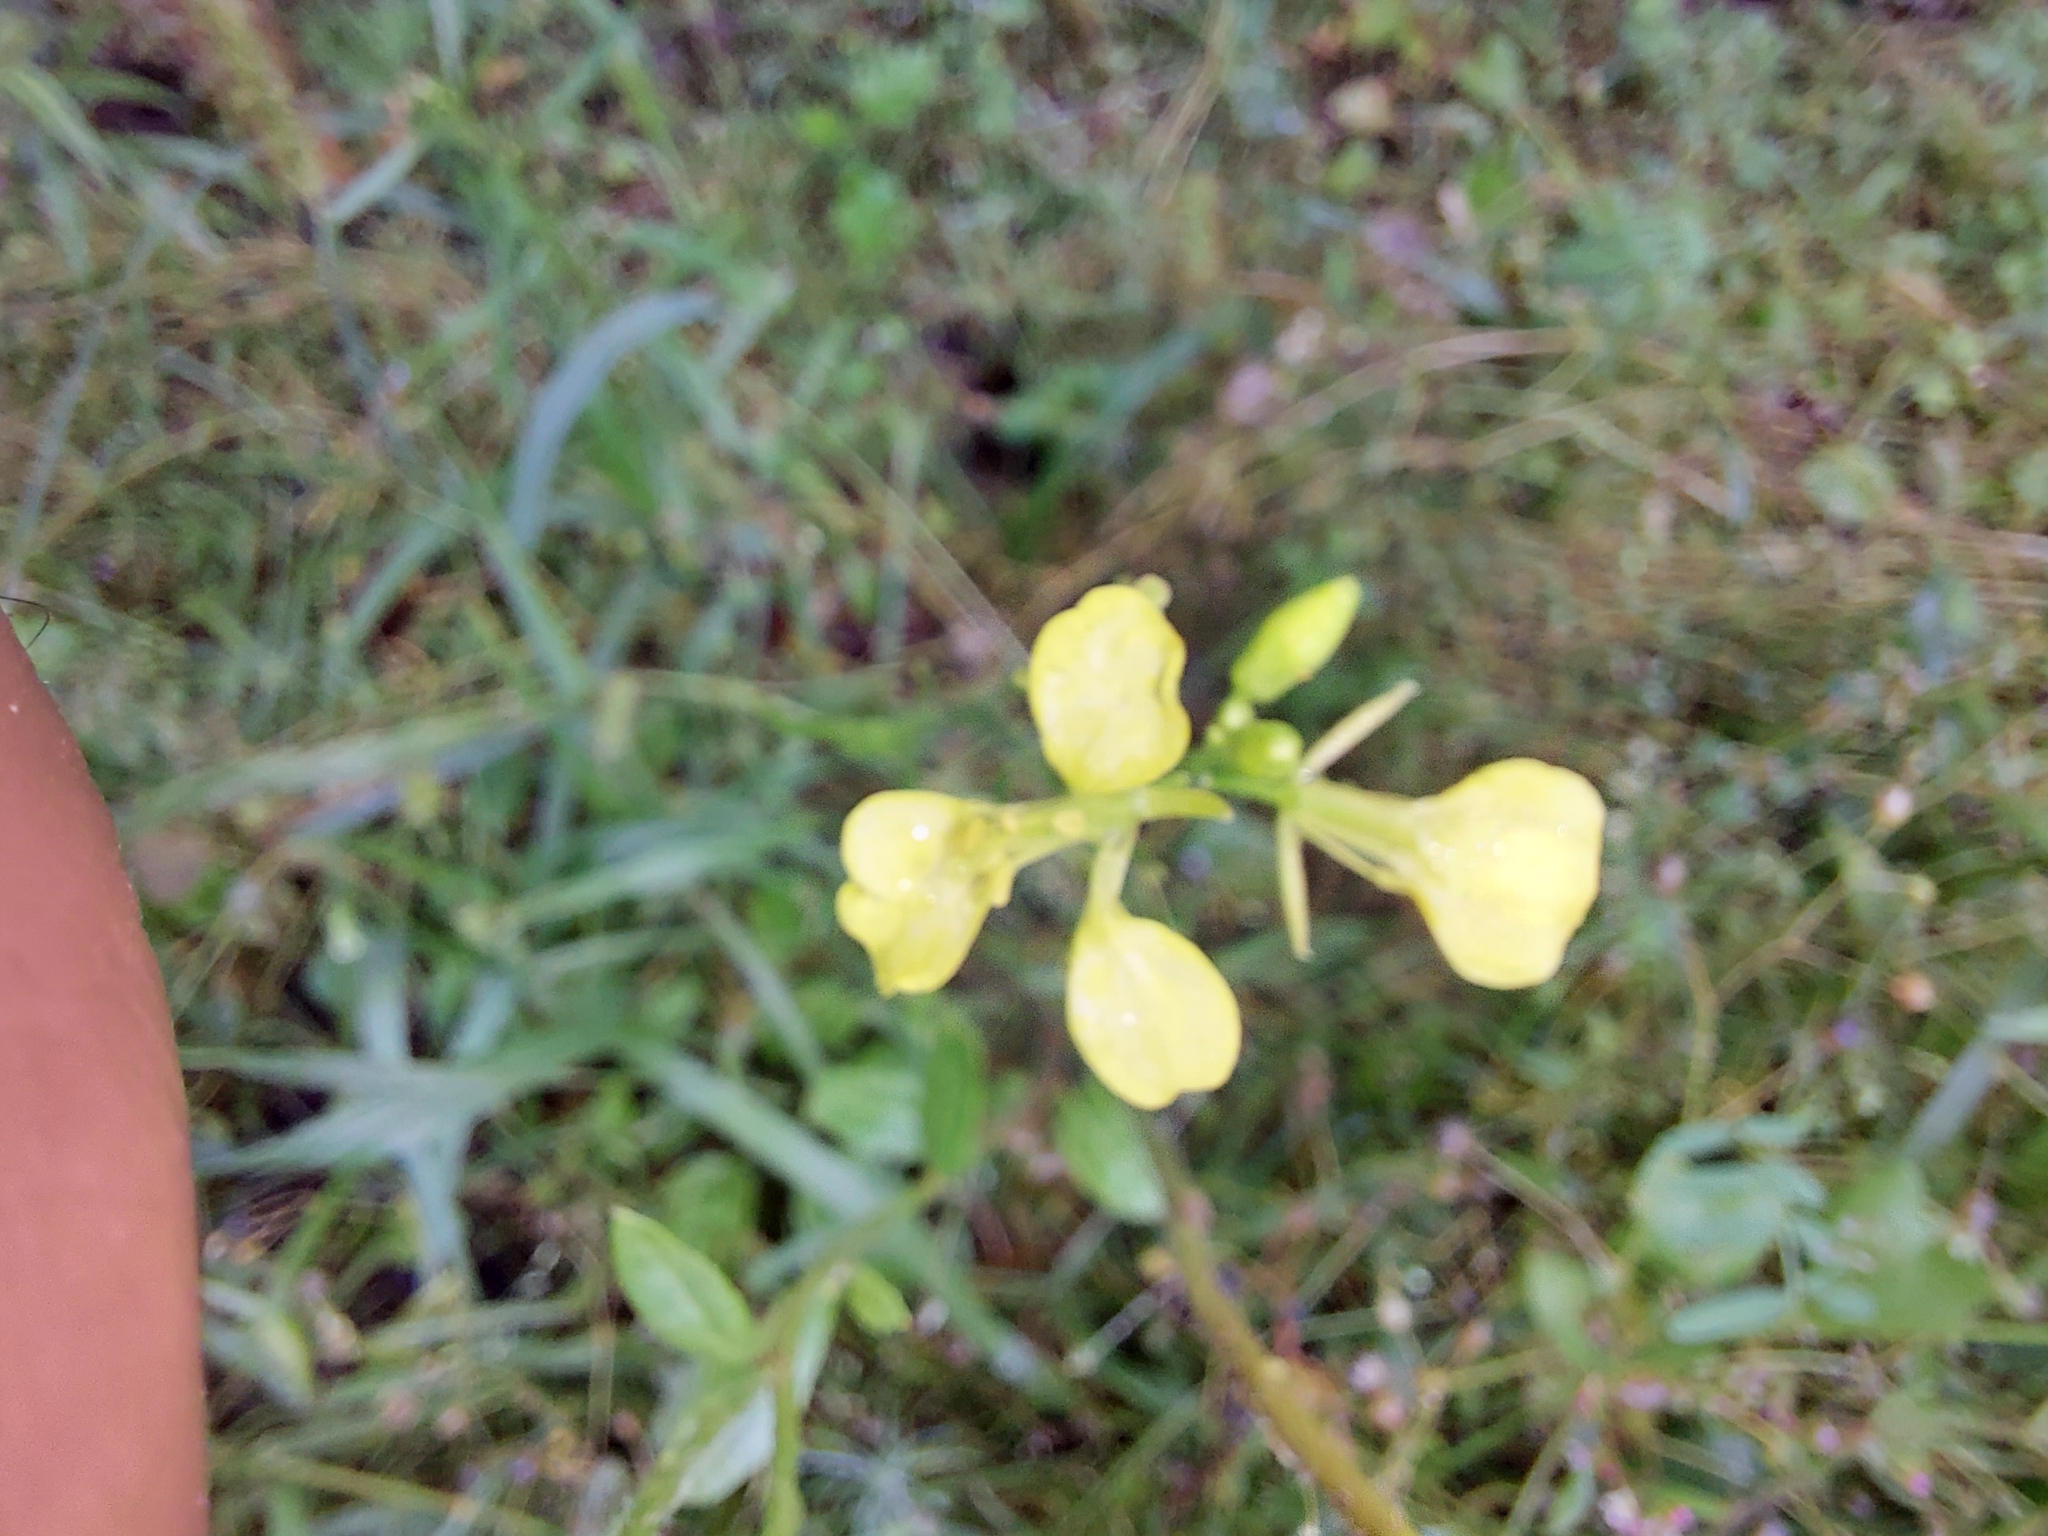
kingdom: Plantae
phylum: Tracheophyta
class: Magnoliopsida
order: Brassicales
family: Brassicaceae
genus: Sinapis
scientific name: Sinapis arvensis
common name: Charlock
